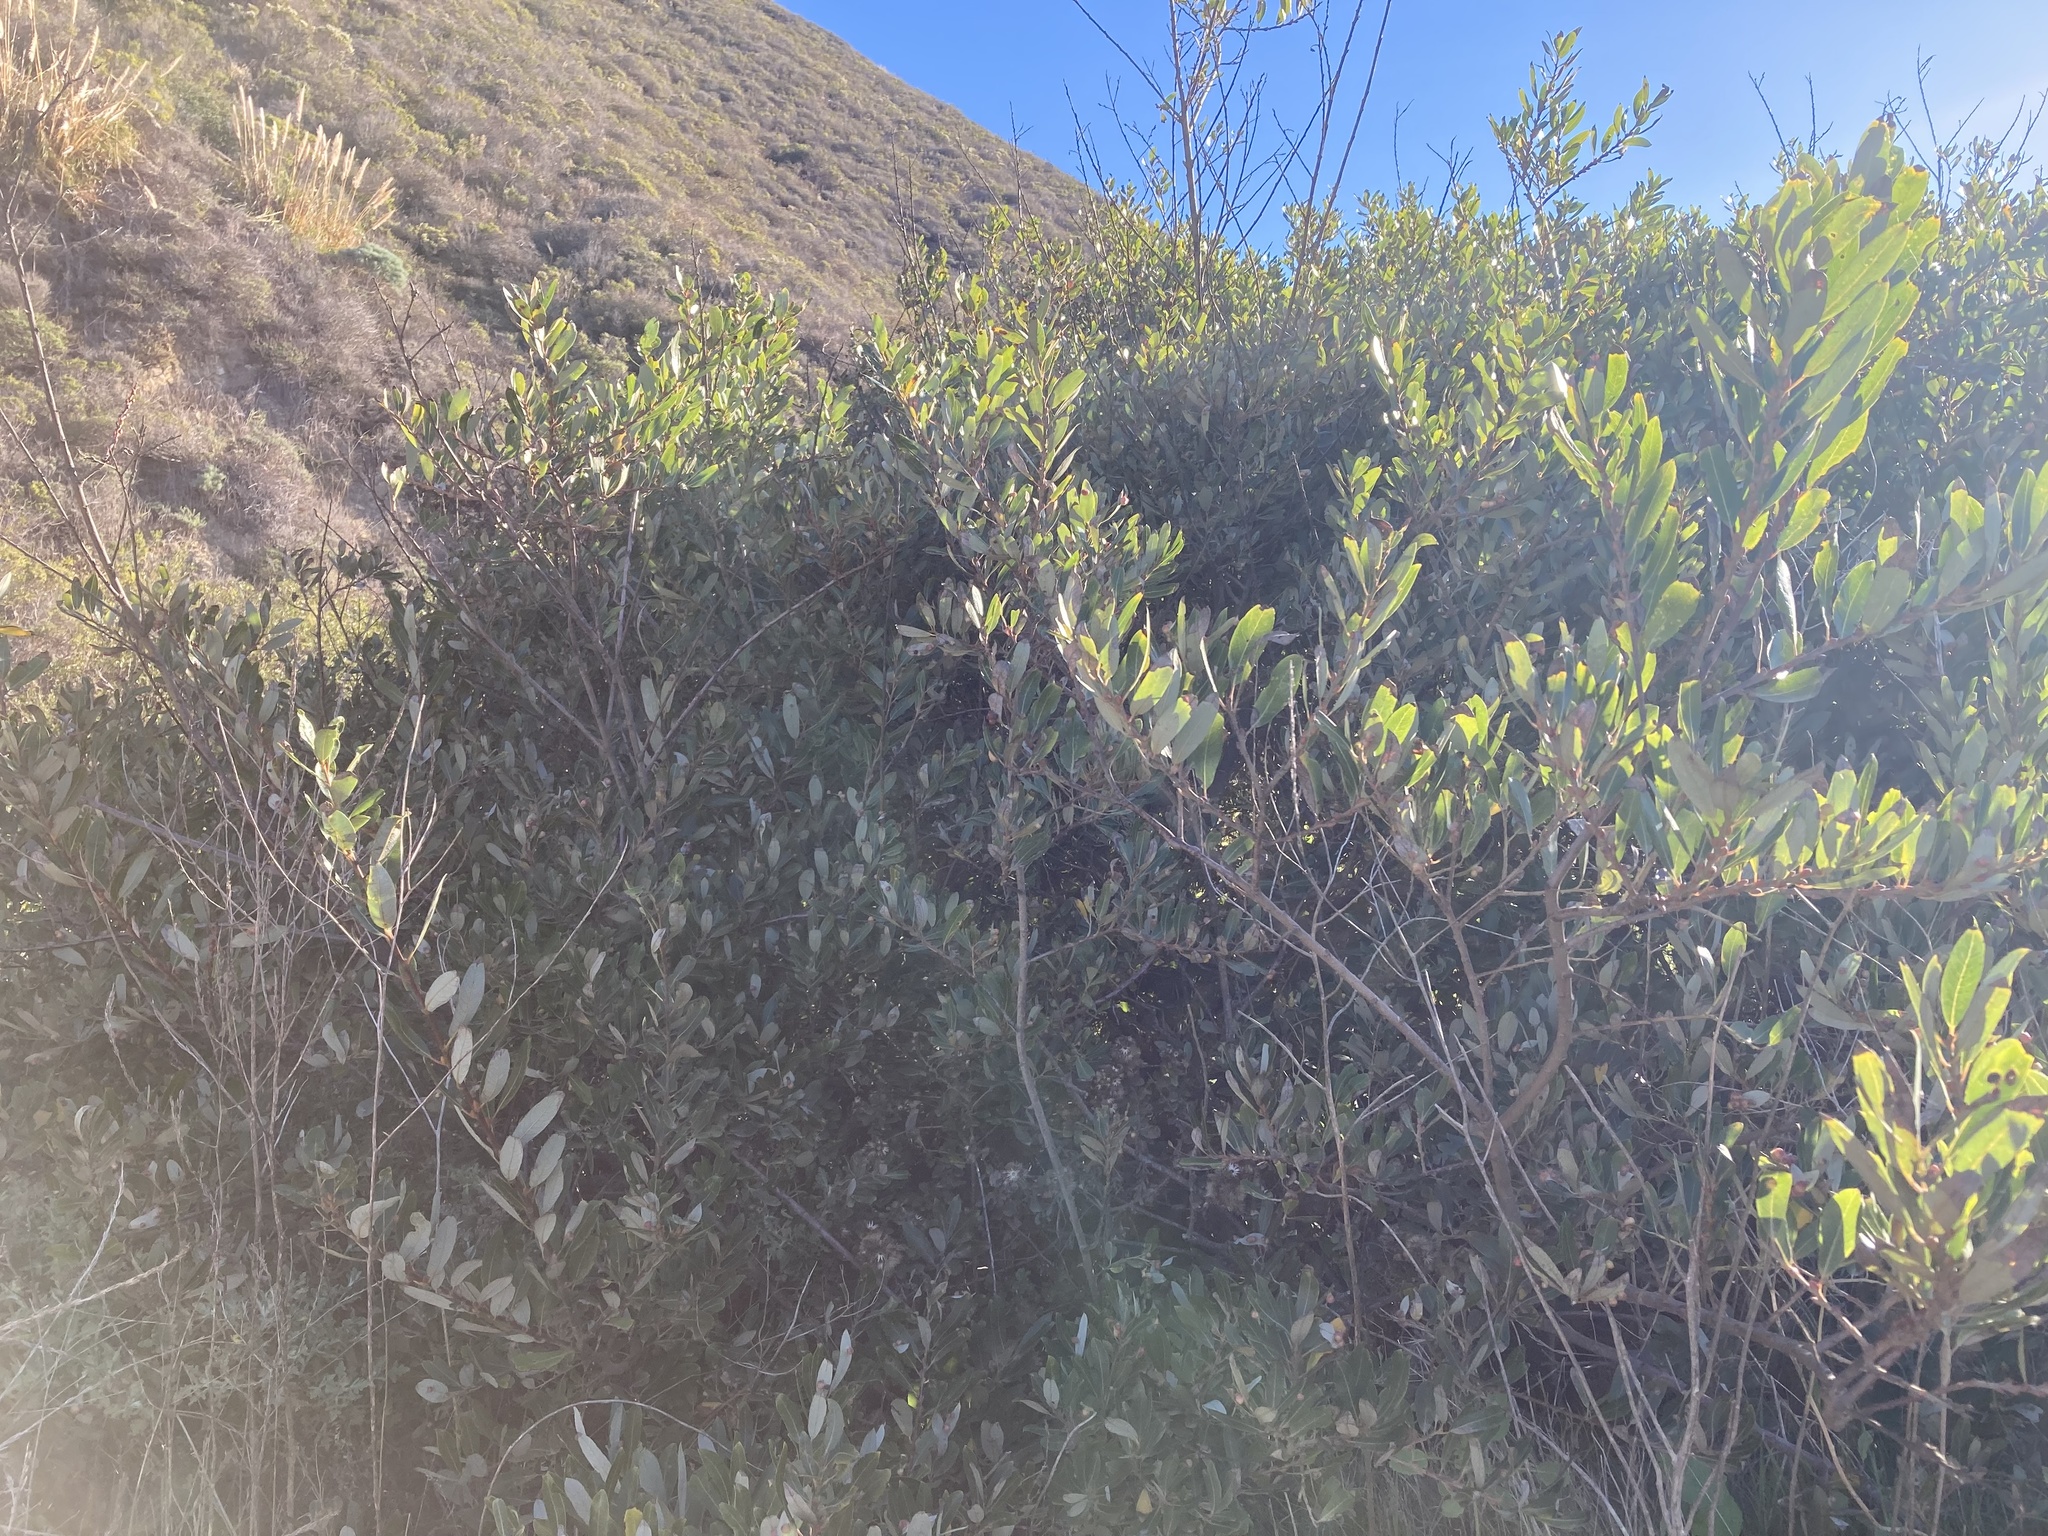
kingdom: Plantae
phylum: Tracheophyta
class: Magnoliopsida
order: Malpighiales
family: Salicaceae
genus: Salix
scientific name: Salix lasiolepis
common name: Arroyo willow
